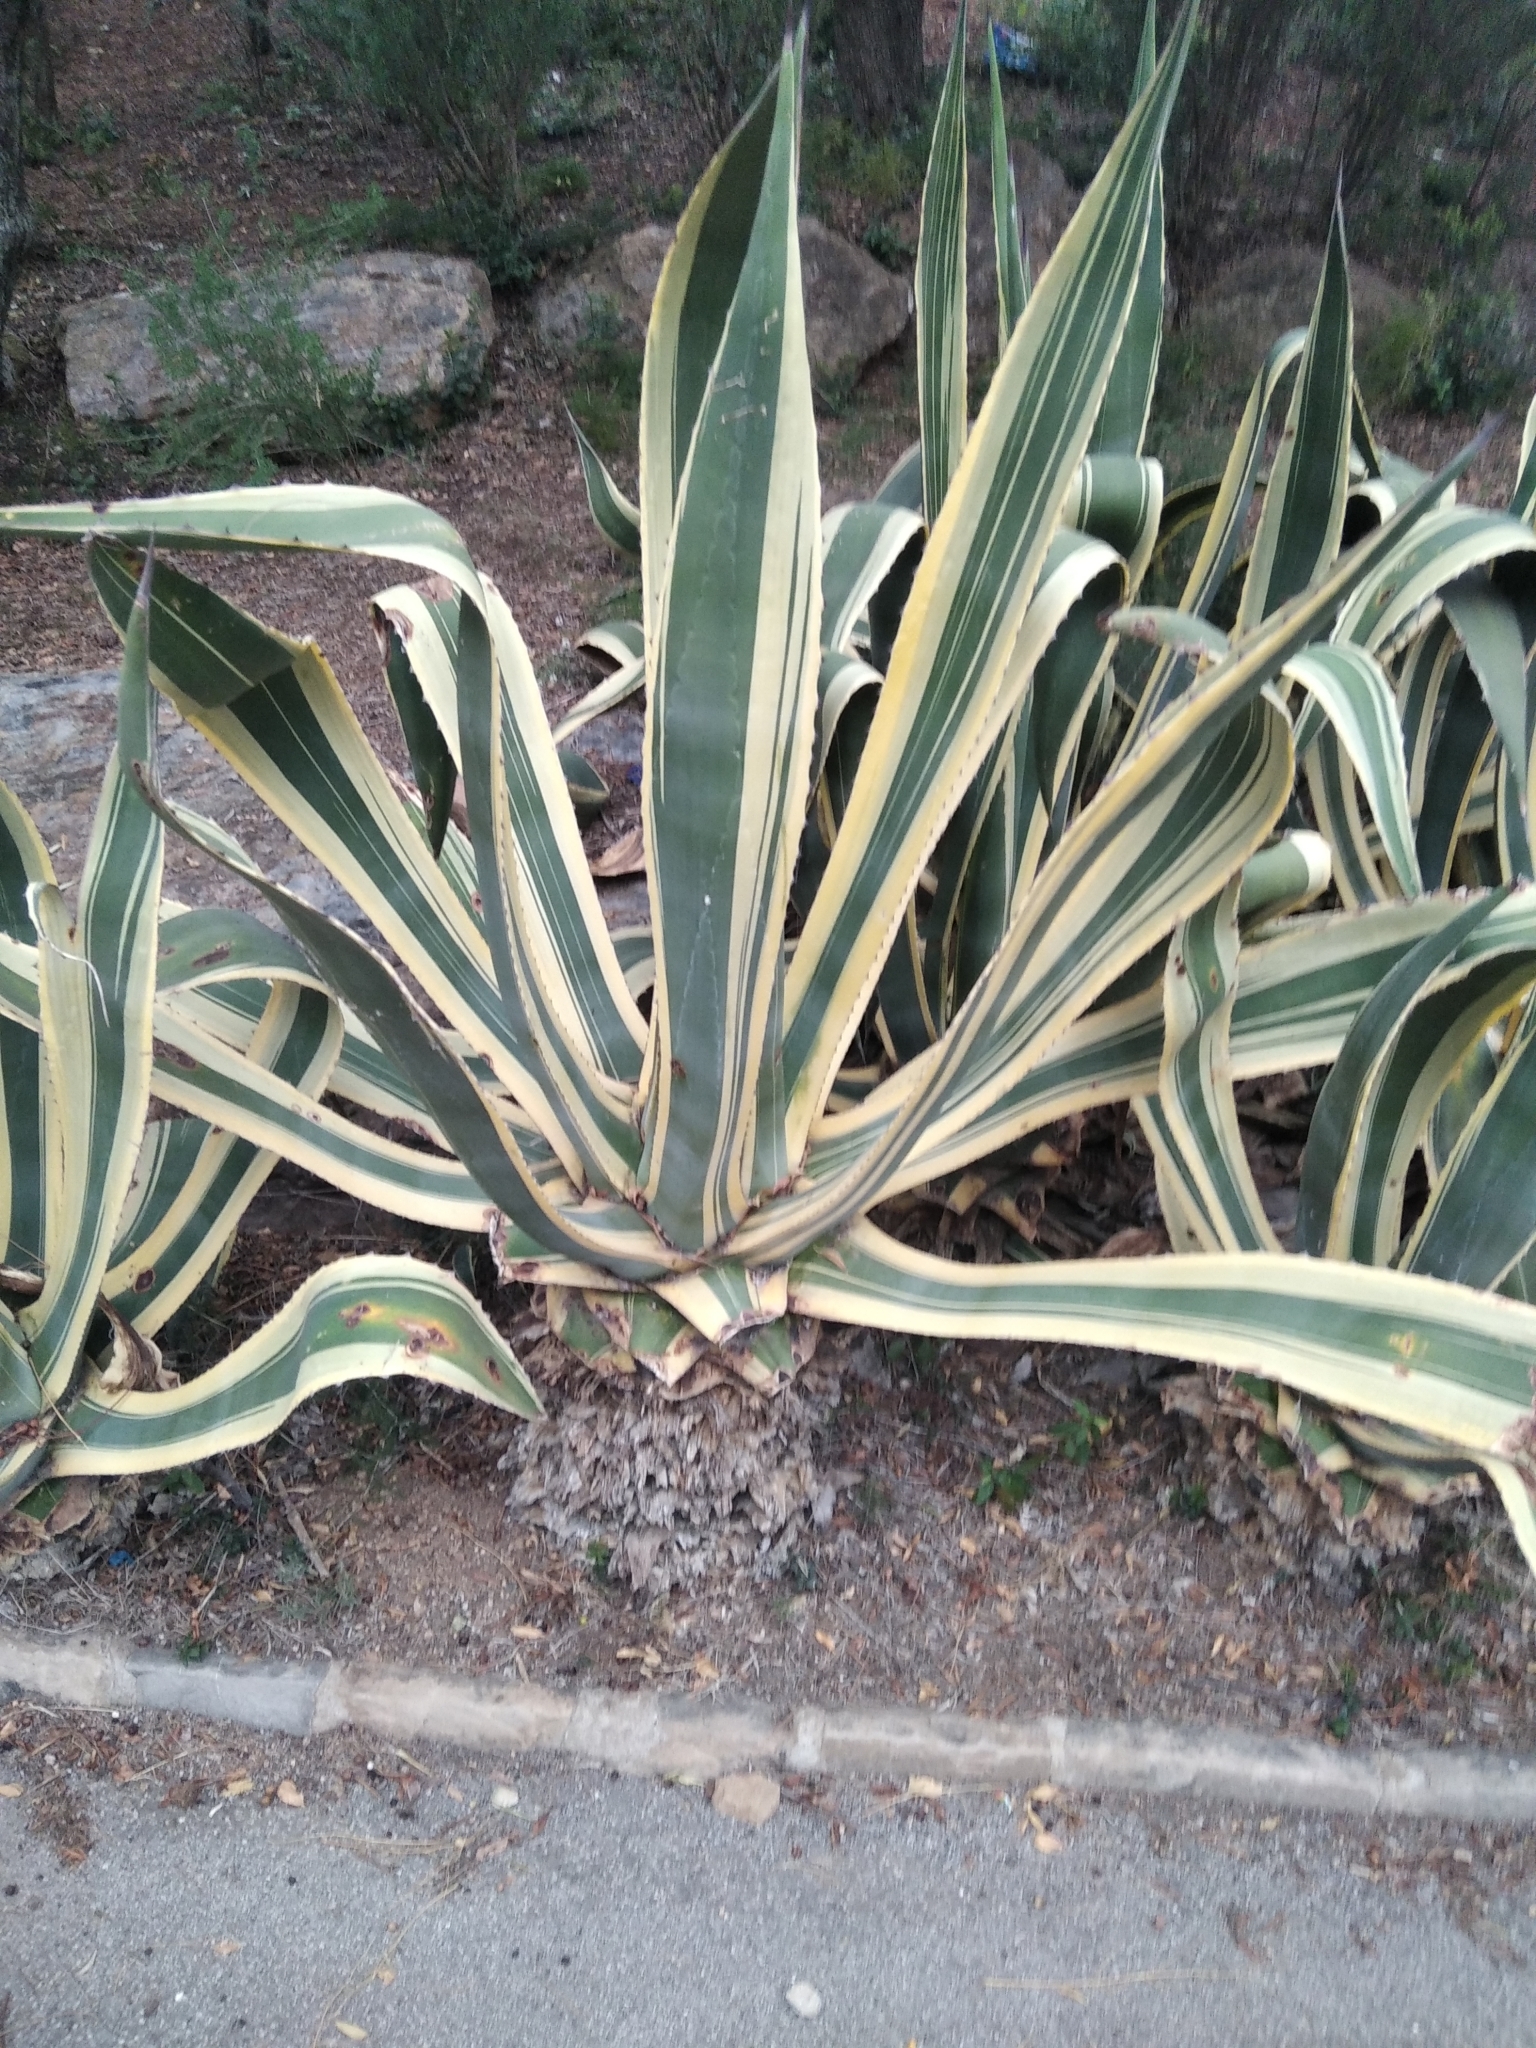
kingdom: Plantae
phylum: Tracheophyta
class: Liliopsida
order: Asparagales
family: Asparagaceae
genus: Agave
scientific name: Agave americana
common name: Centuryplant
